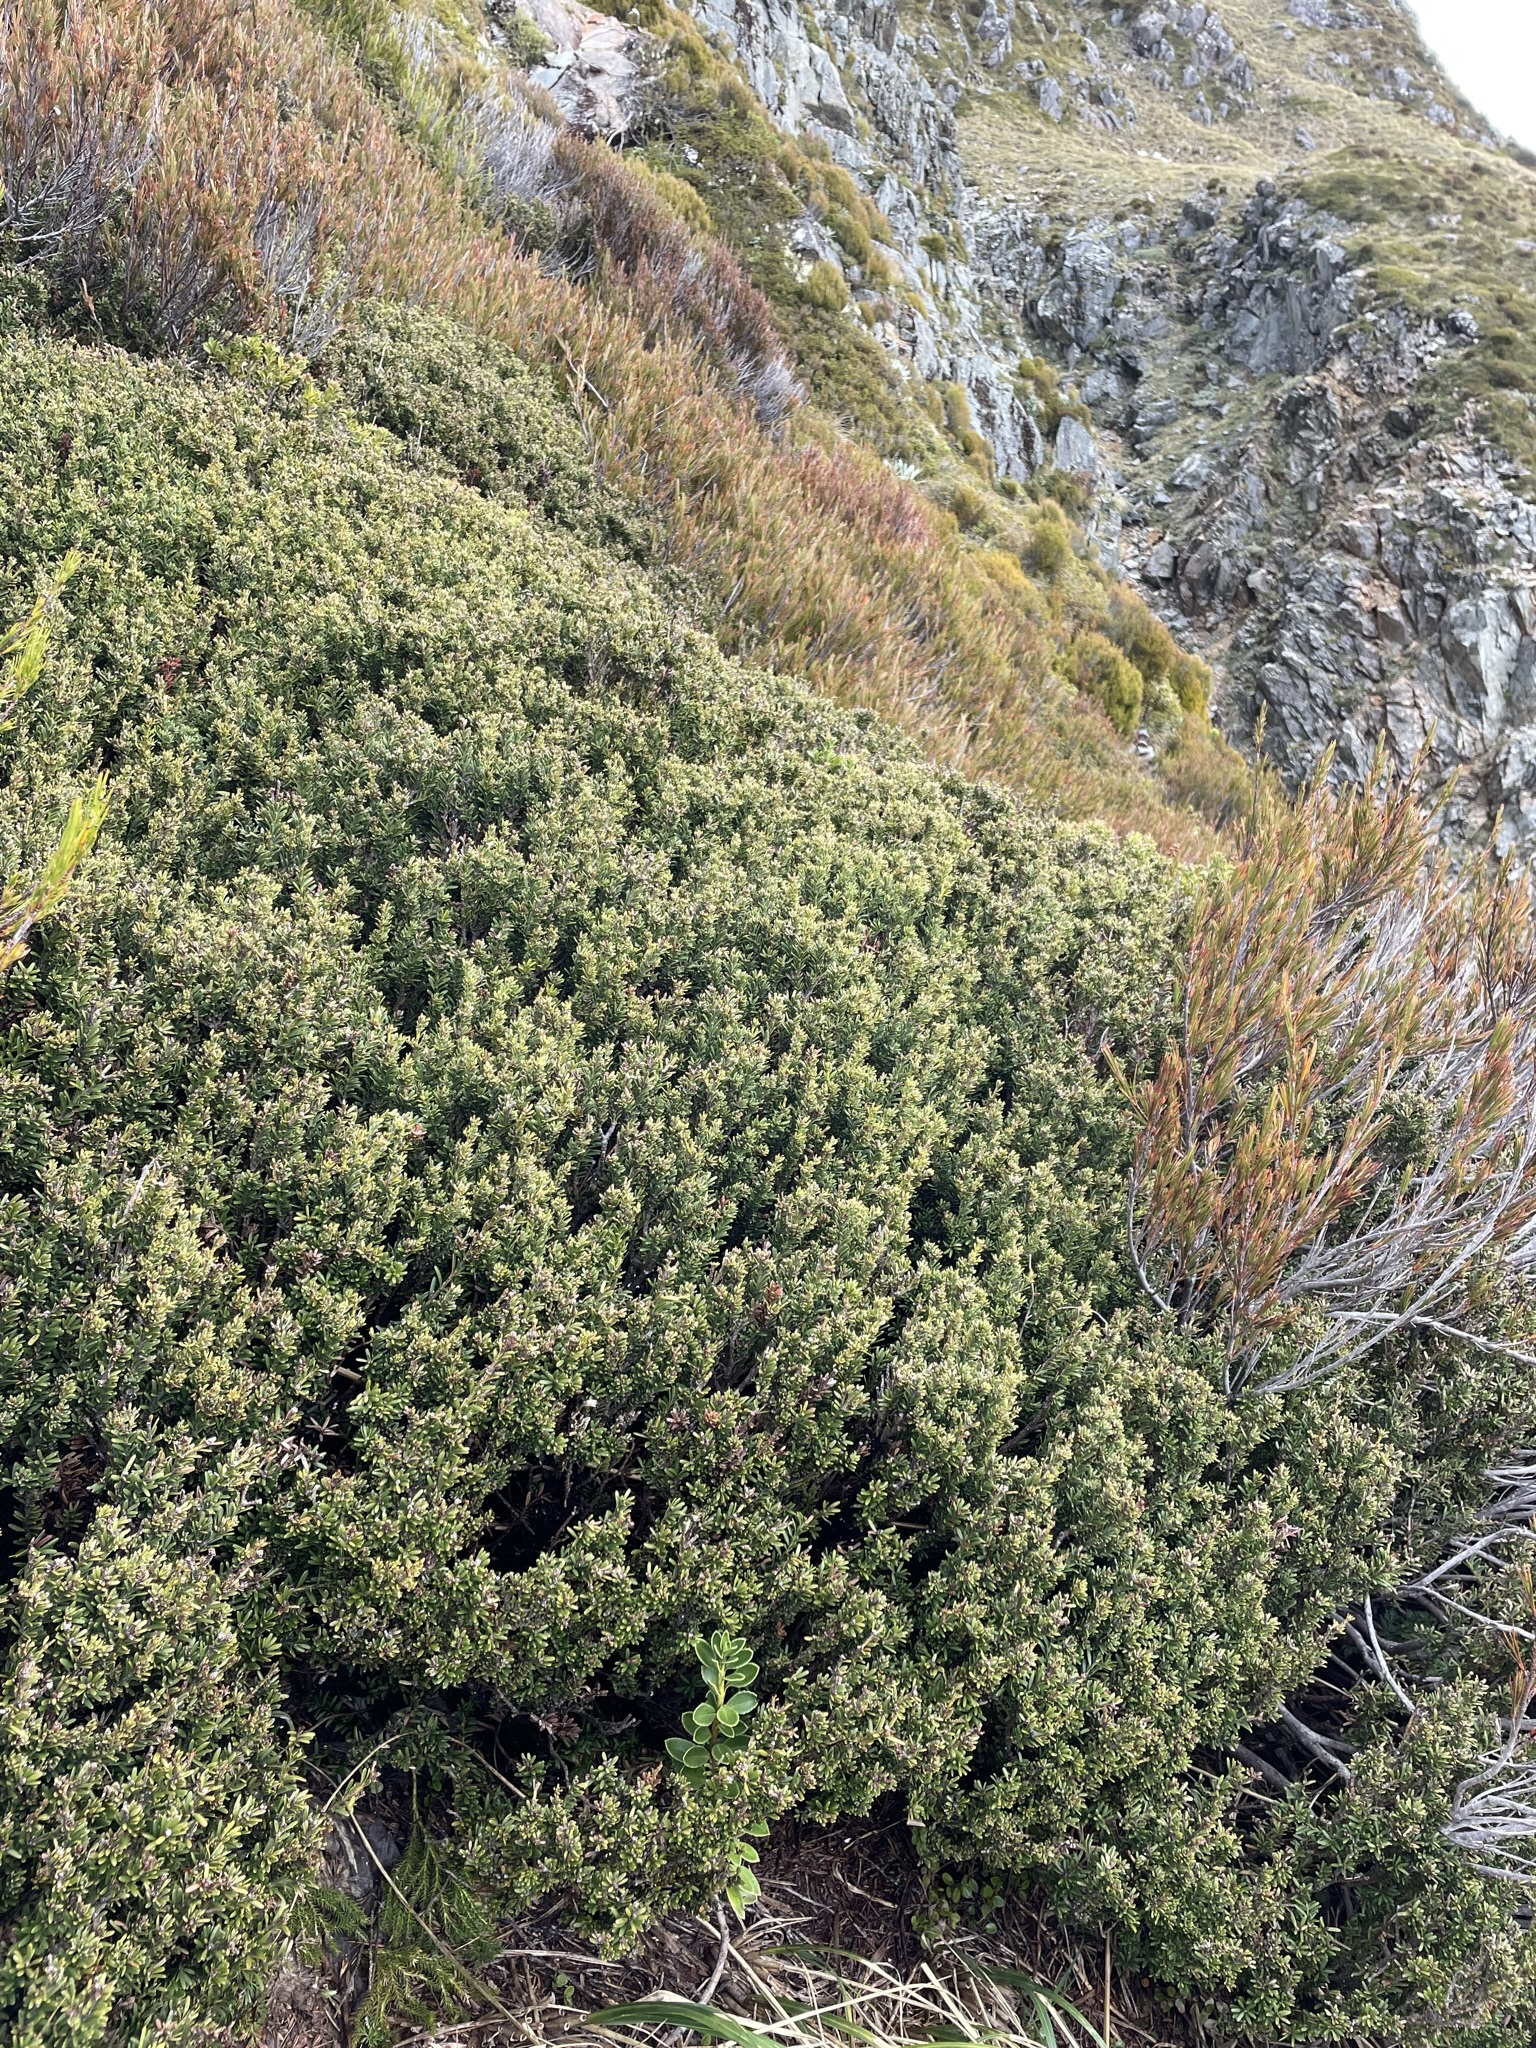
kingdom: Plantae
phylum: Tracheophyta
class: Pinopsida
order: Pinales
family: Podocarpaceae
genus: Podocarpus
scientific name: Podocarpus nivalis
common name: Alpine totara
